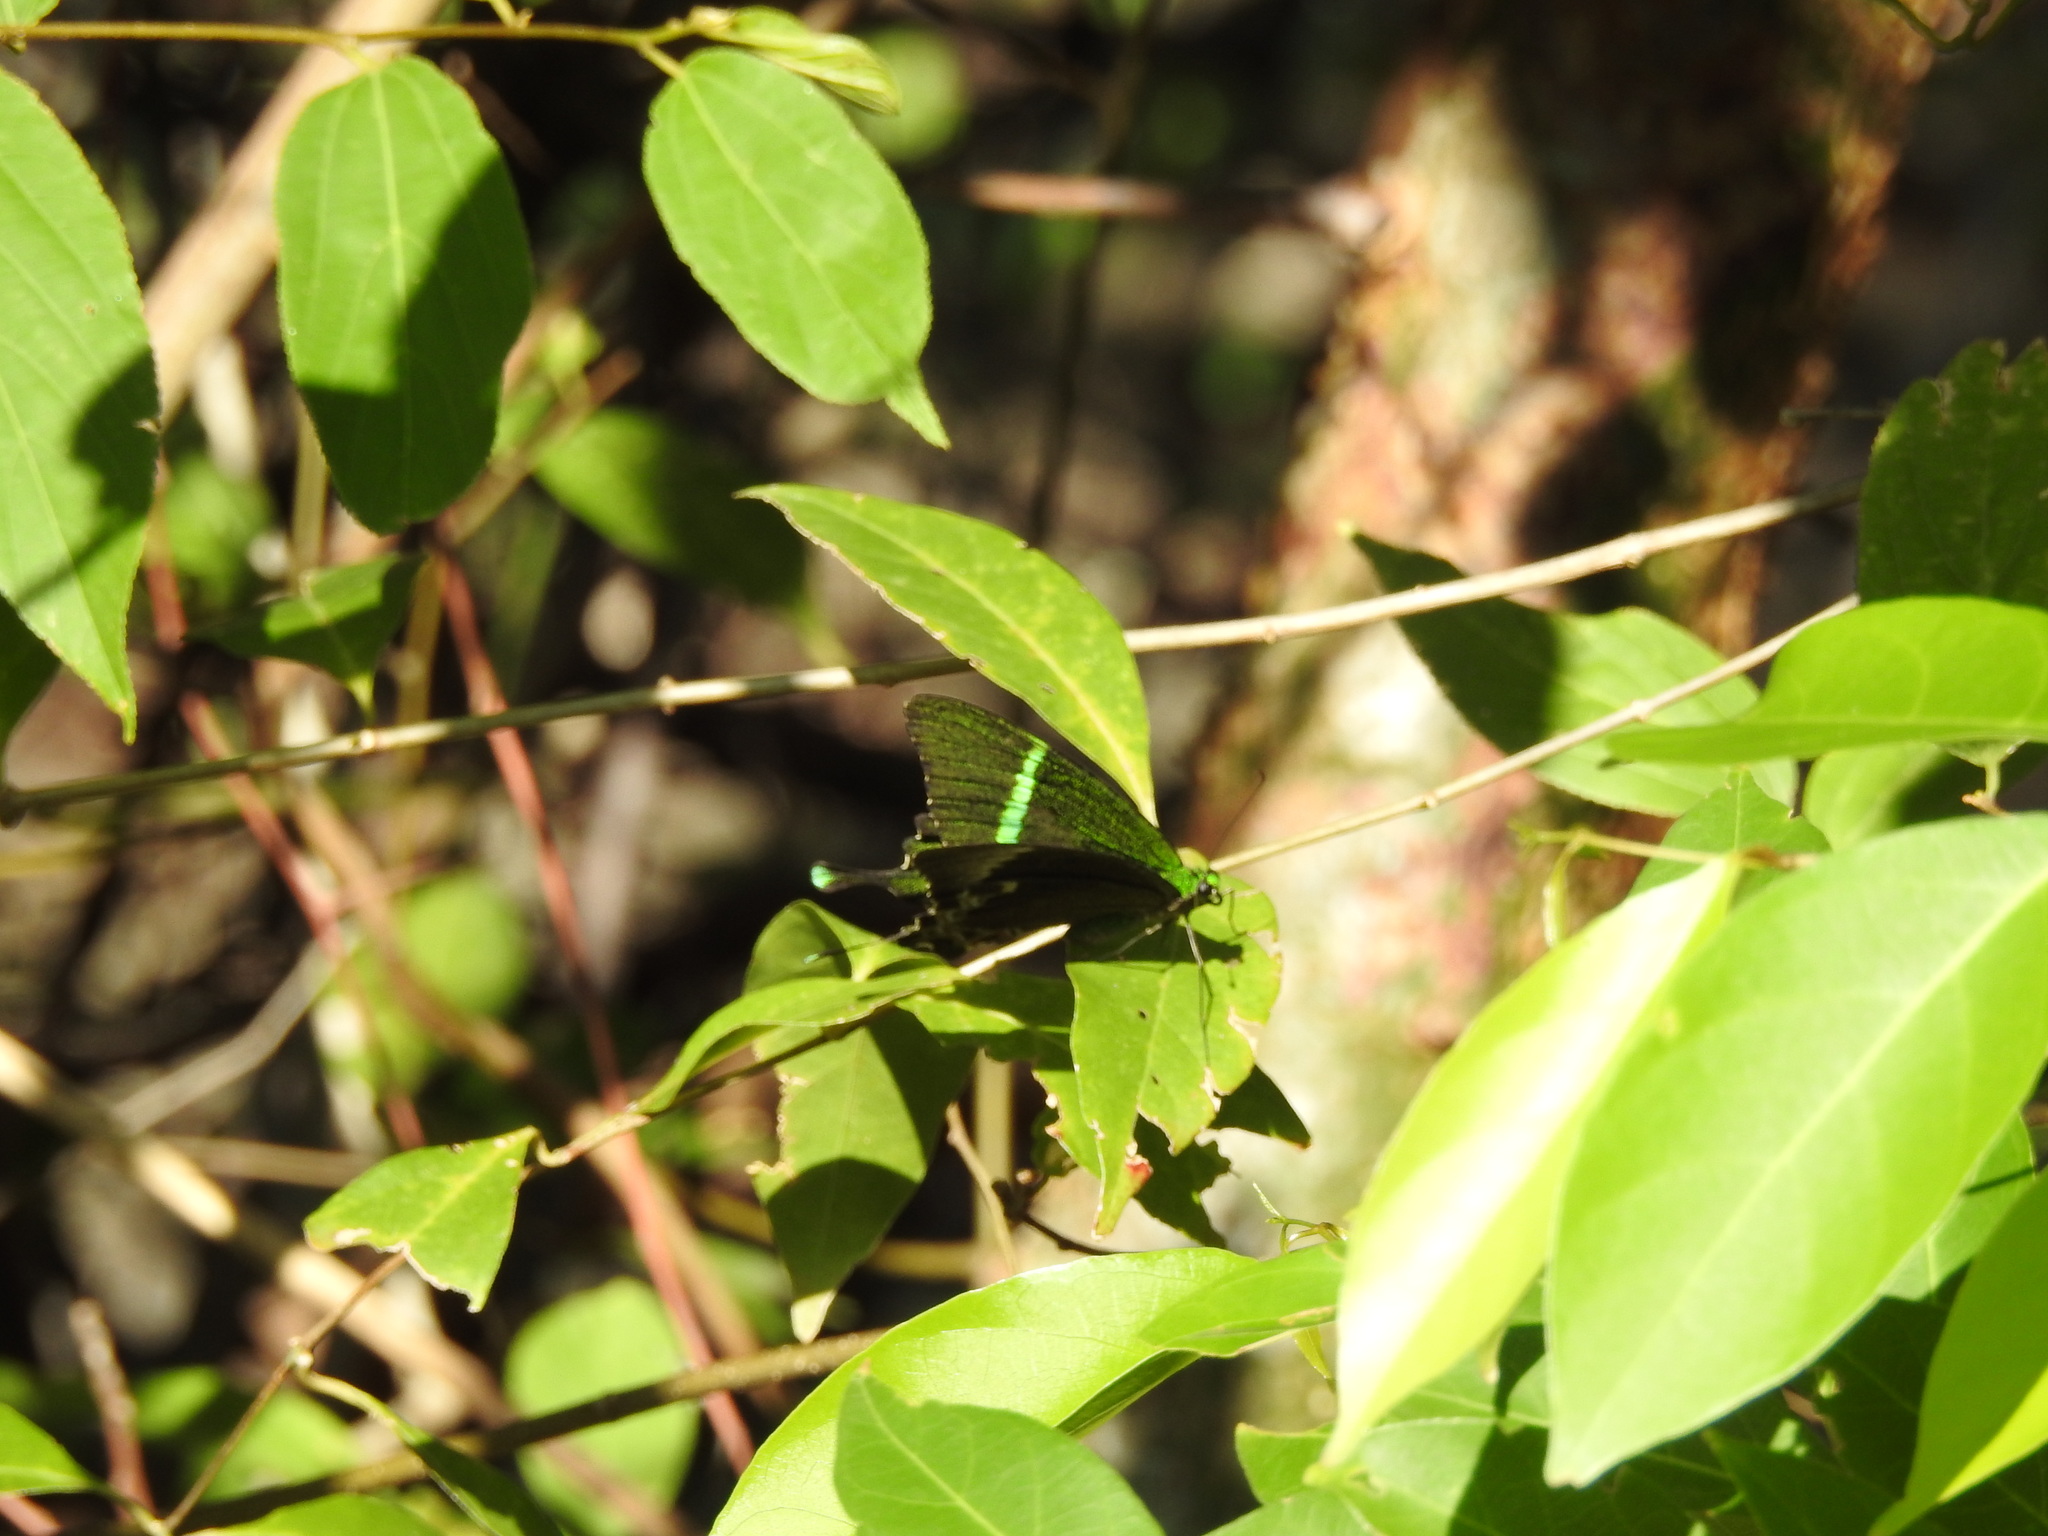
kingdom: Animalia
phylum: Arthropoda
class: Insecta
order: Lepidoptera
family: Papilionidae
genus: Papilio
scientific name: Papilio crino
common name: Common banded peacock
